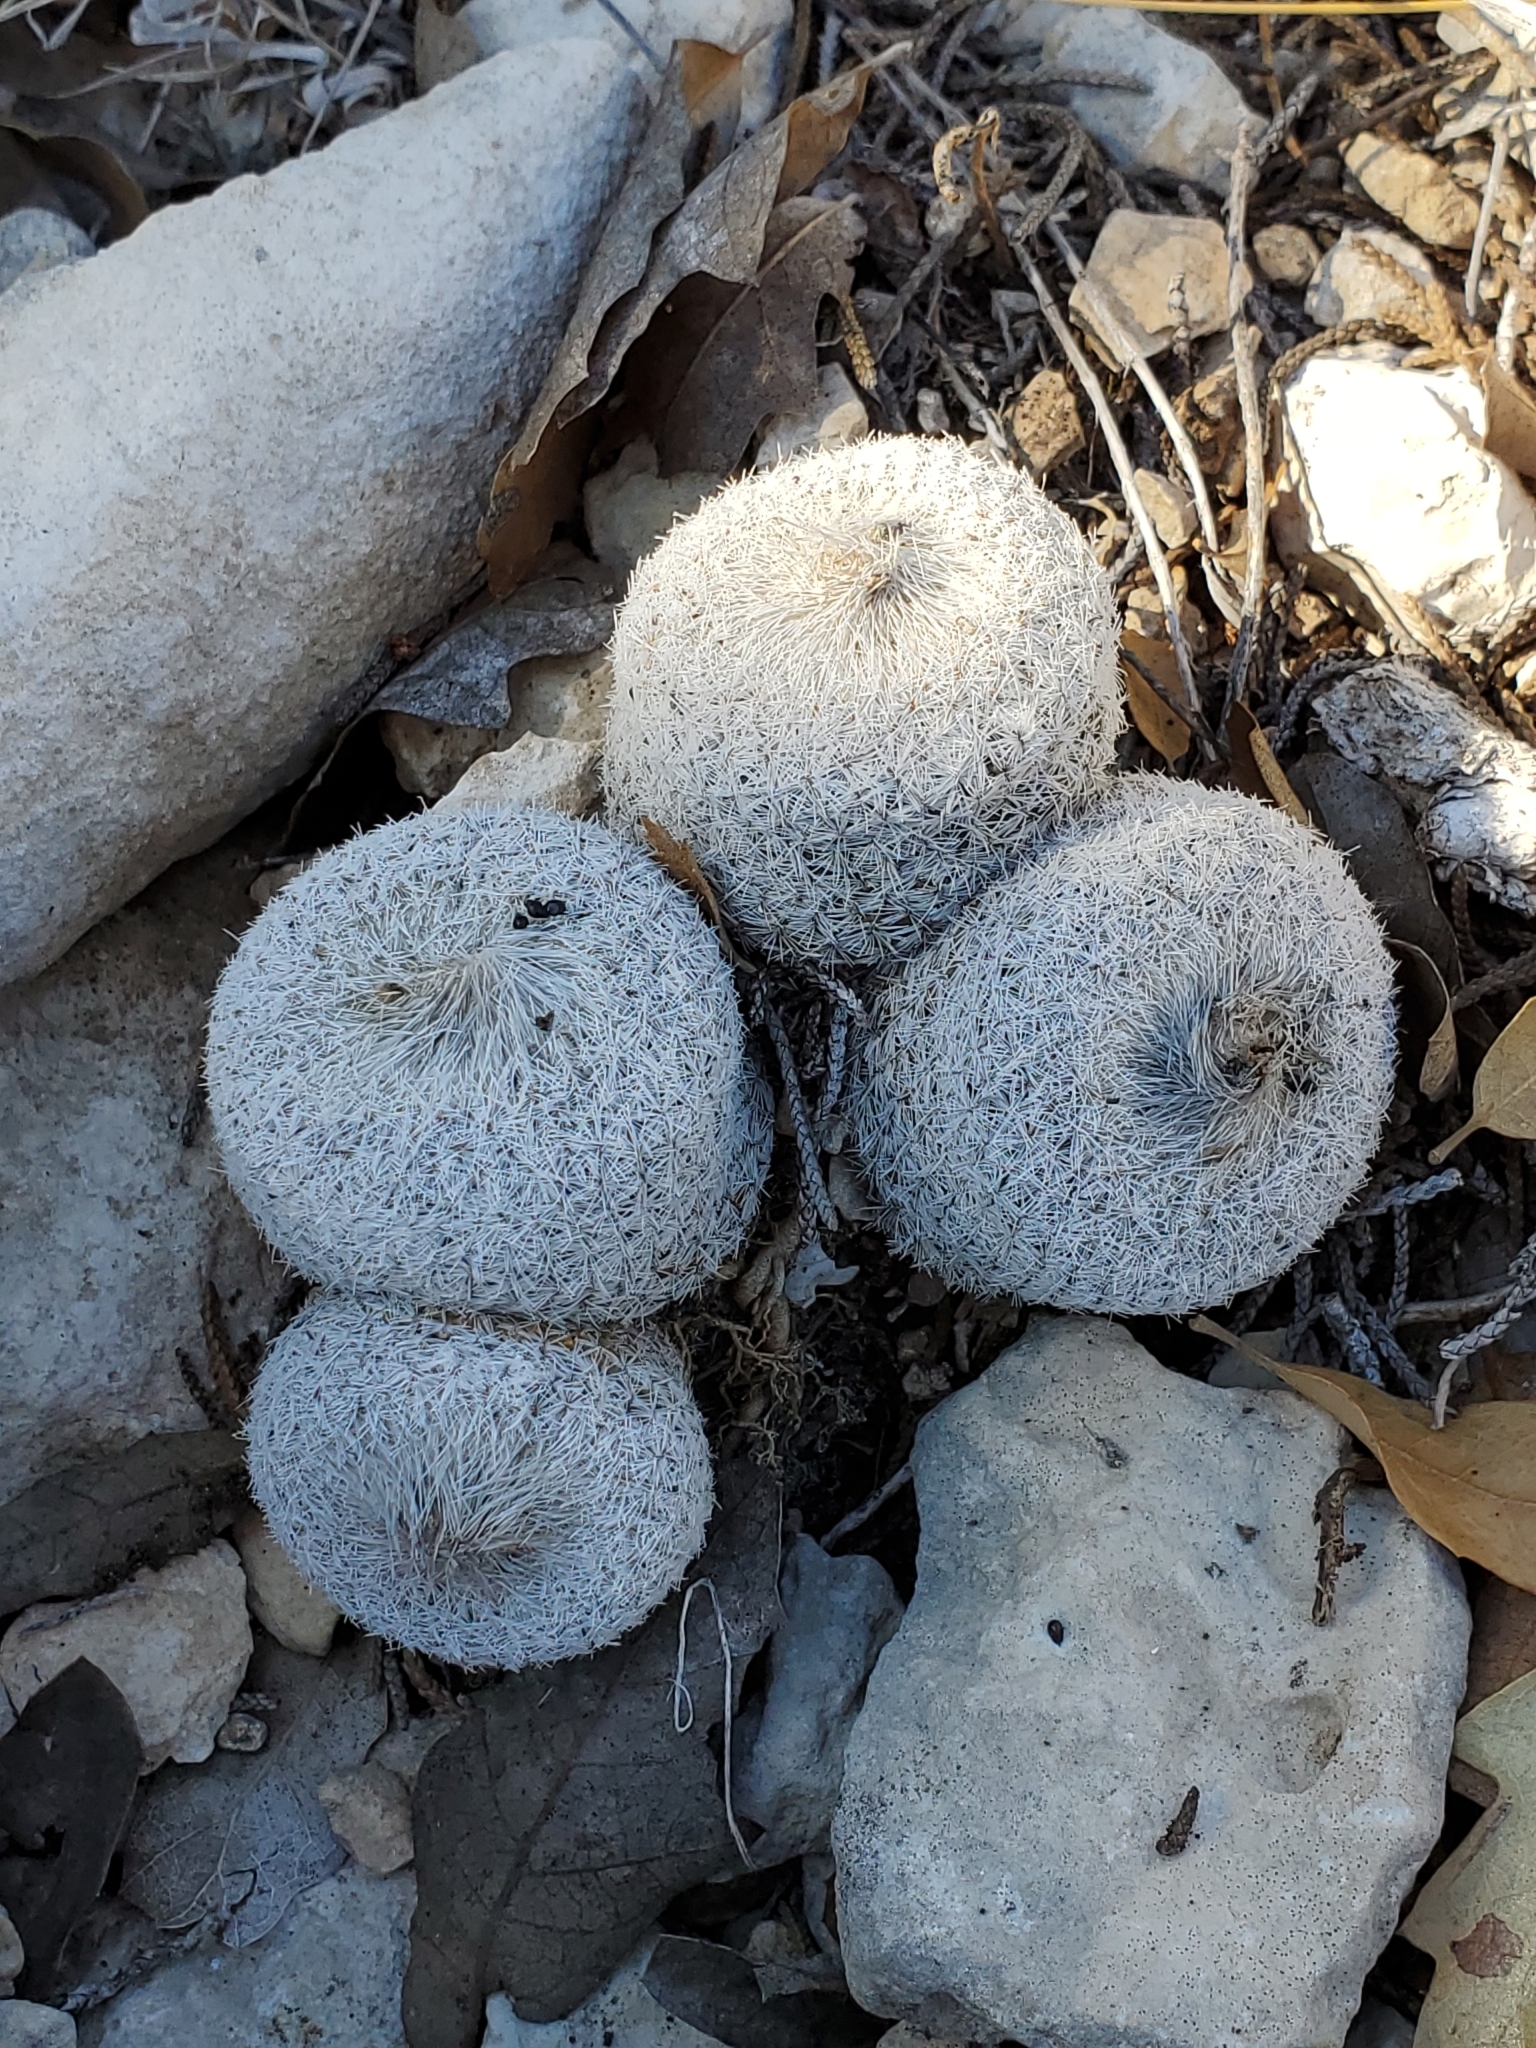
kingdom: Plantae
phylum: Tracheophyta
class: Magnoliopsida
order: Caryophyllales
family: Cactaceae
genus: Epithelantha
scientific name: Epithelantha micromeris
